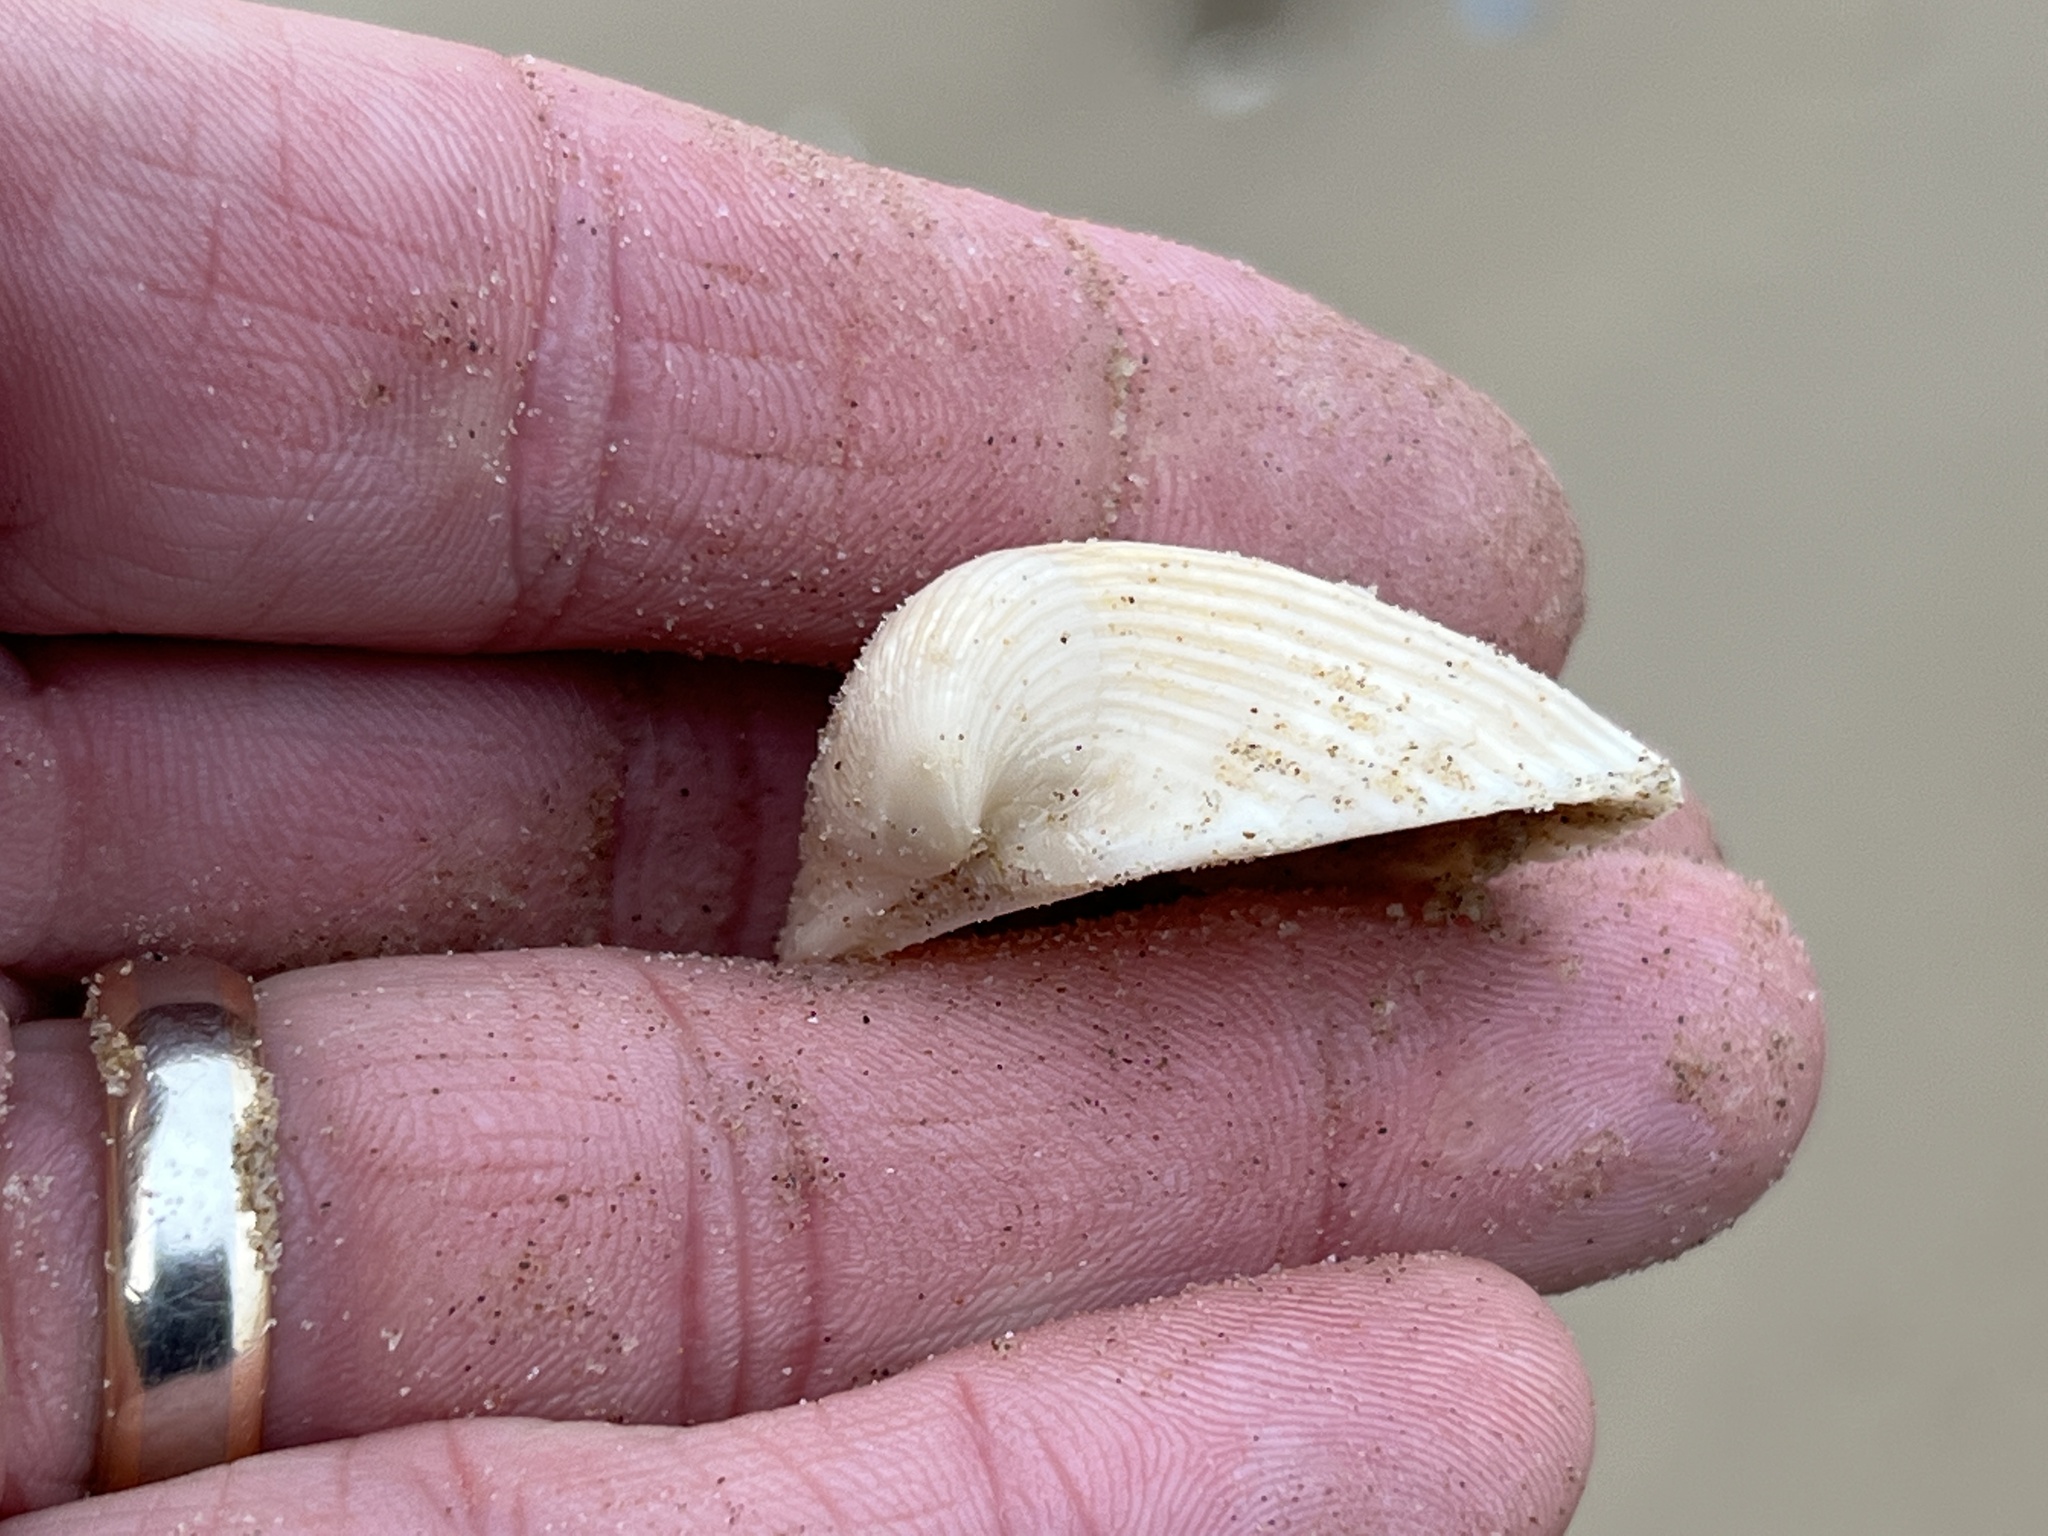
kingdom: Animalia
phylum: Mollusca
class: Bivalvia
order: Arcida
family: Noetiidae
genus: Noetia
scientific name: Noetia ponderosa
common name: Ponderous ark
